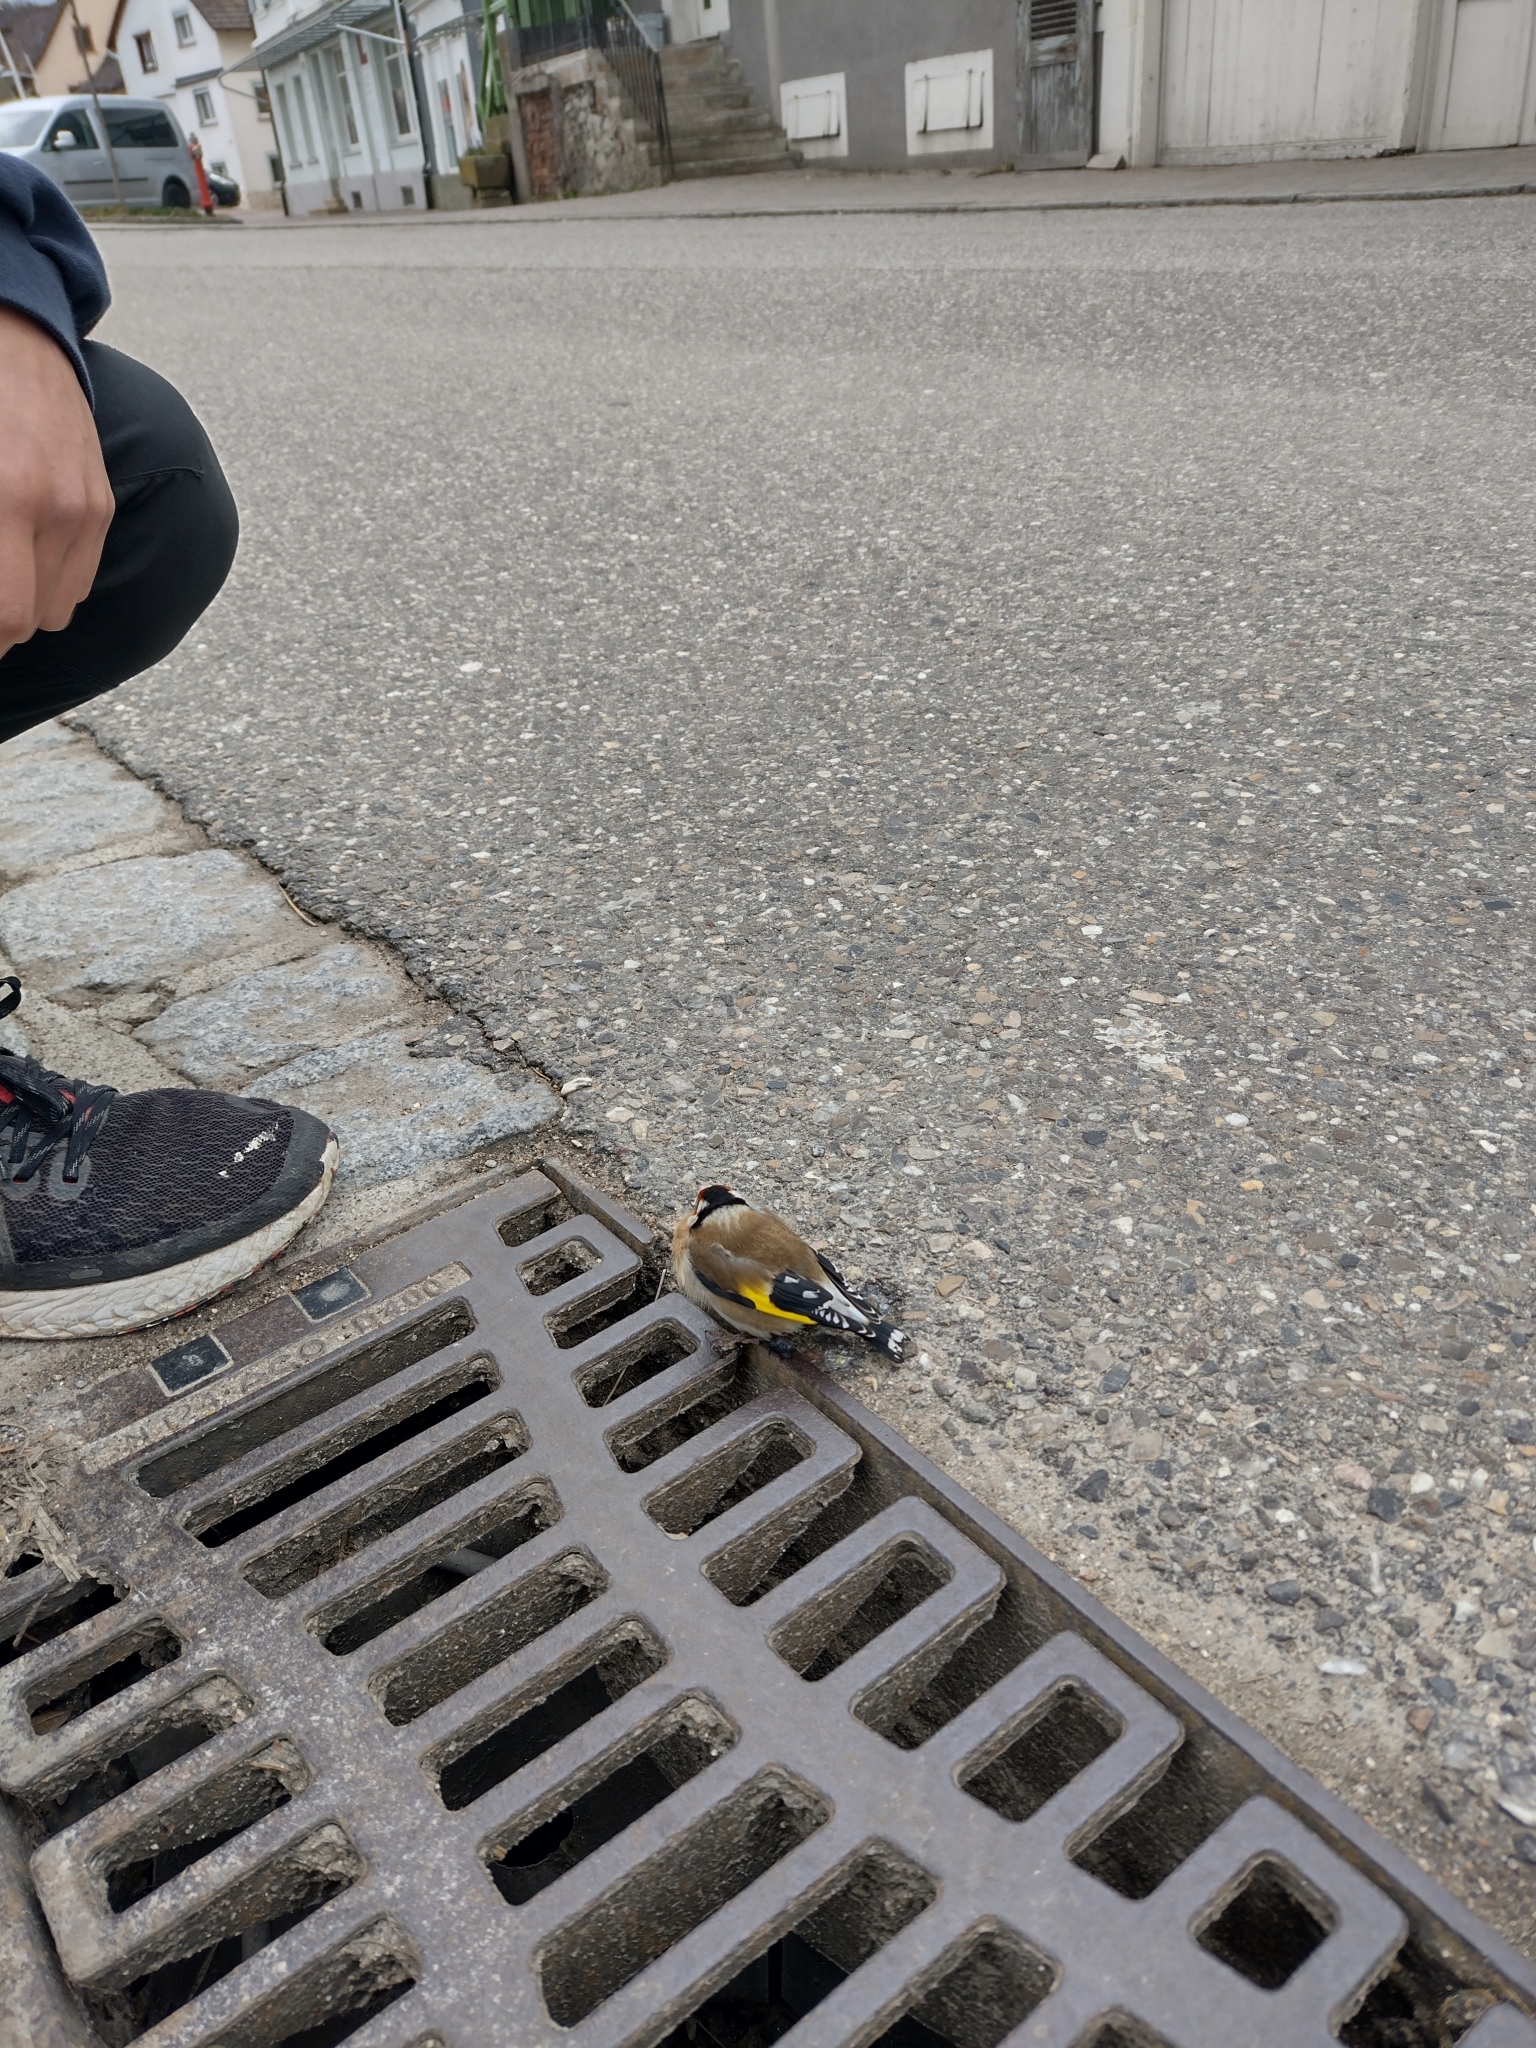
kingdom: Animalia
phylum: Chordata
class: Aves
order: Passeriformes
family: Fringillidae
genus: Carduelis
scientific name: Carduelis carduelis
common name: European goldfinch
